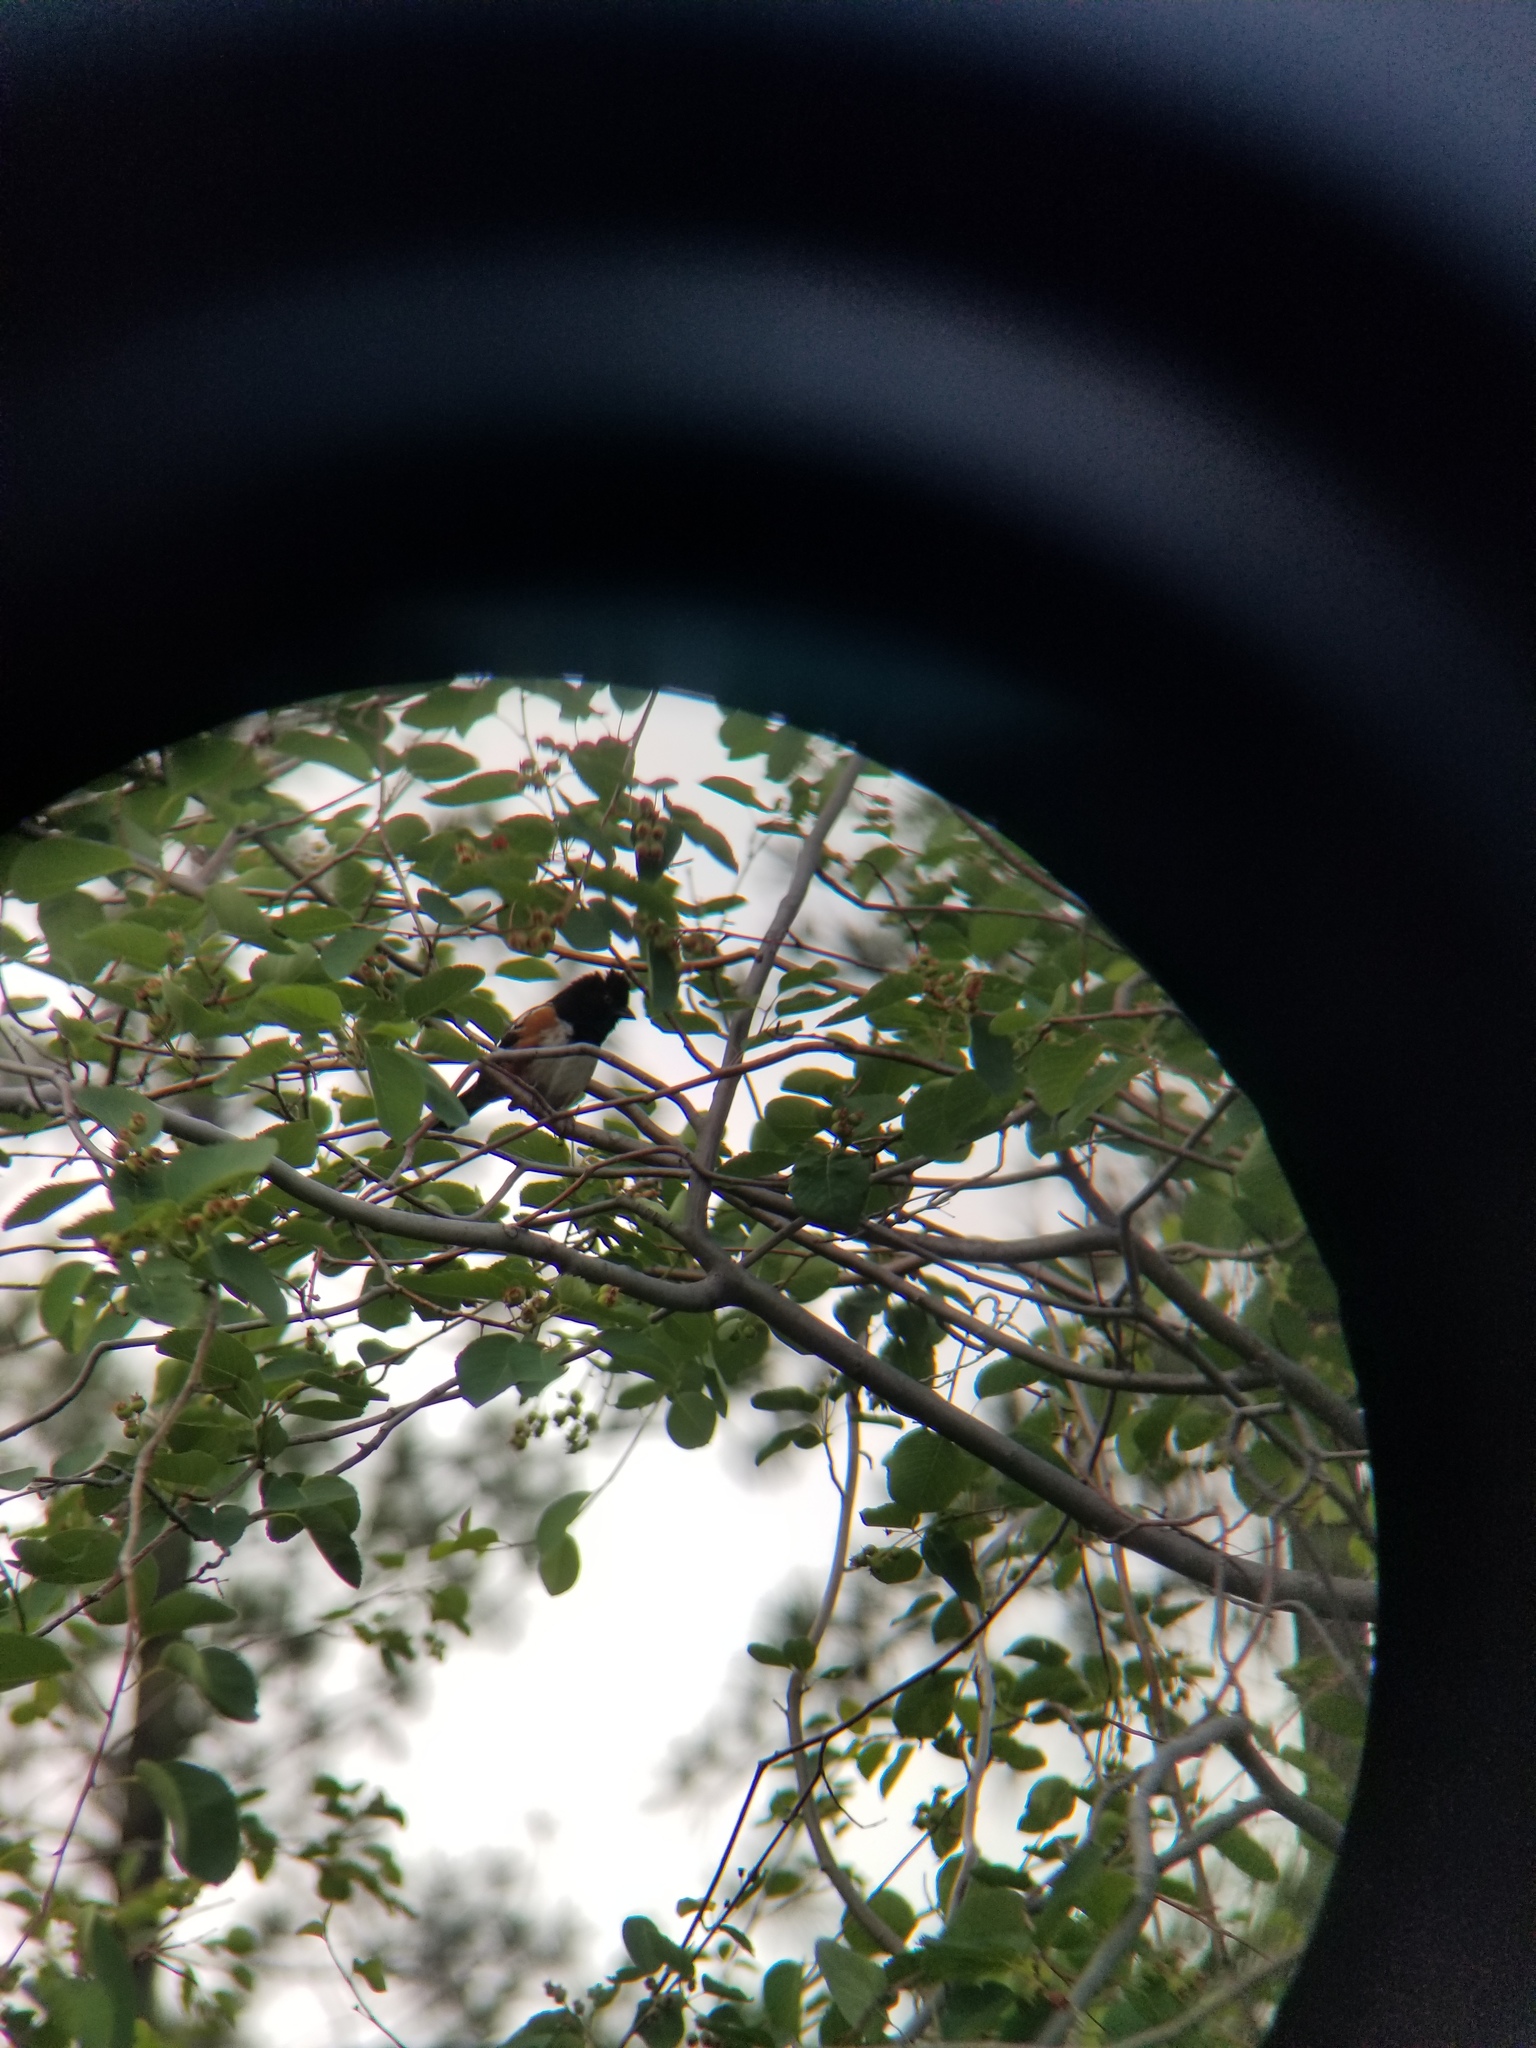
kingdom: Animalia
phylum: Chordata
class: Aves
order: Passeriformes
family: Passerellidae
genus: Pipilo
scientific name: Pipilo maculatus
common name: Spotted towhee
